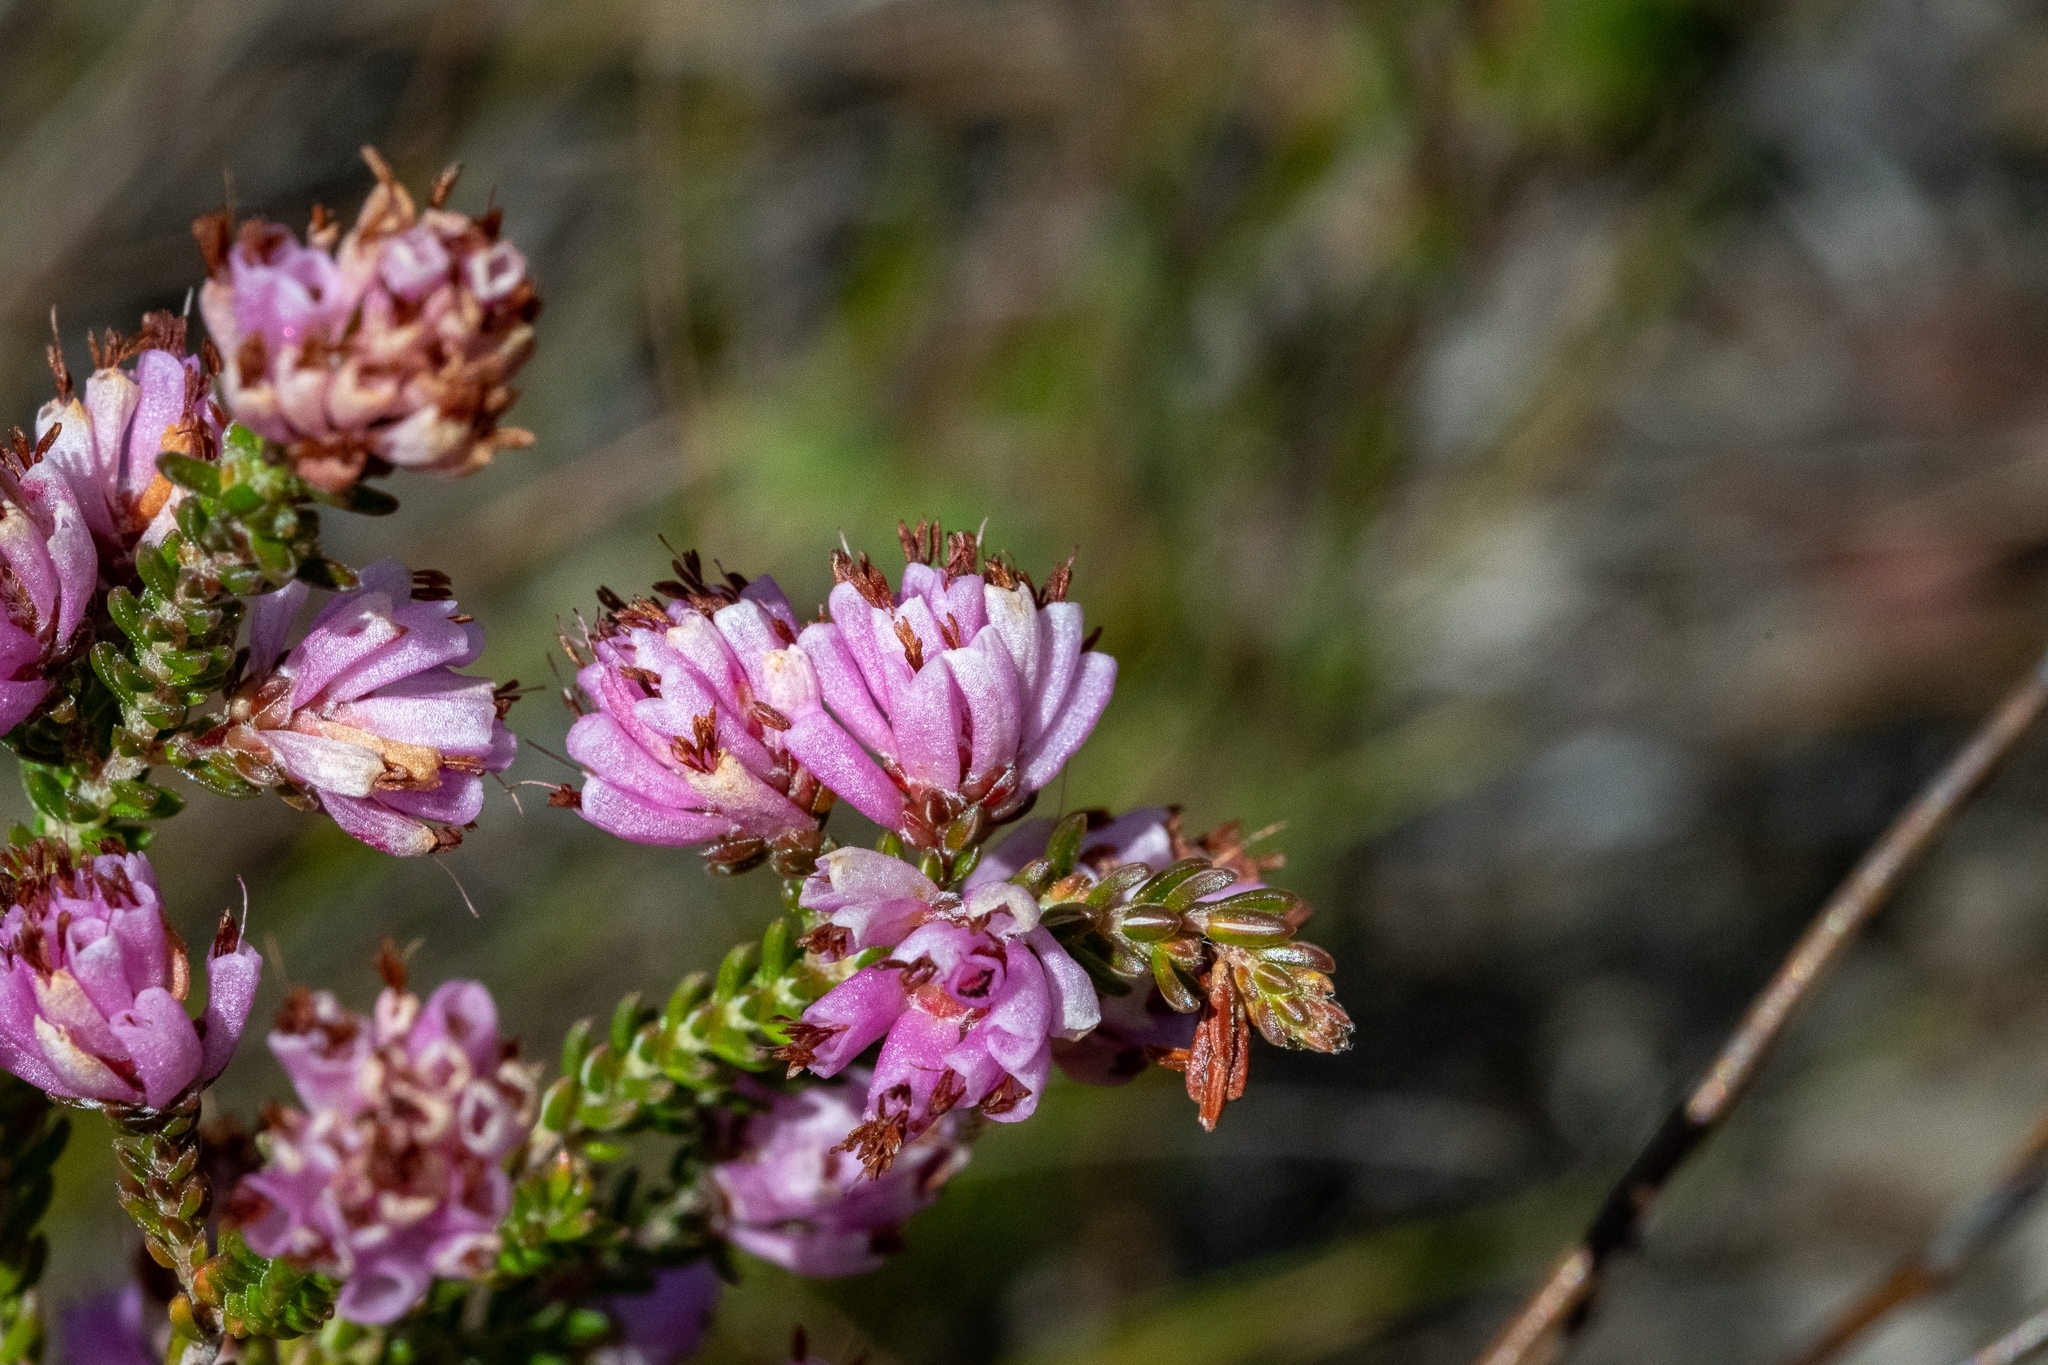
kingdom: Plantae
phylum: Tracheophyta
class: Magnoliopsida
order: Ericales
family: Ericaceae
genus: Erica
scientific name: Erica labialis
